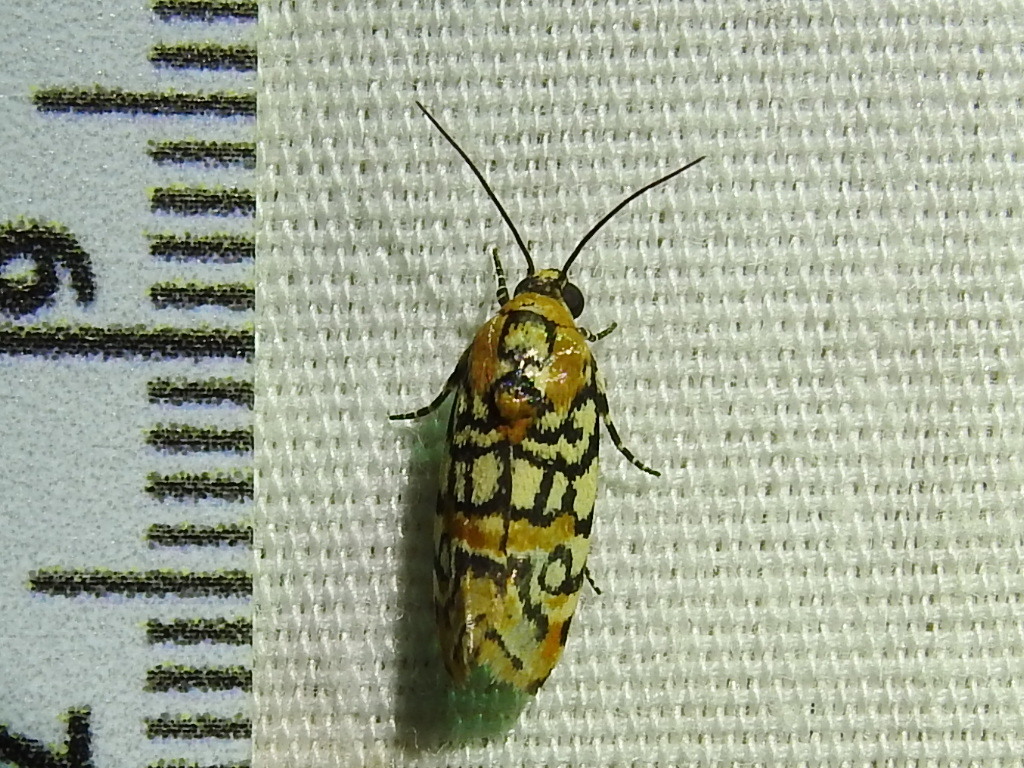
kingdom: Animalia
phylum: Arthropoda
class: Insecta
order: Lepidoptera
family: Noctuidae
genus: Spragueia
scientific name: Spragueia guttata
